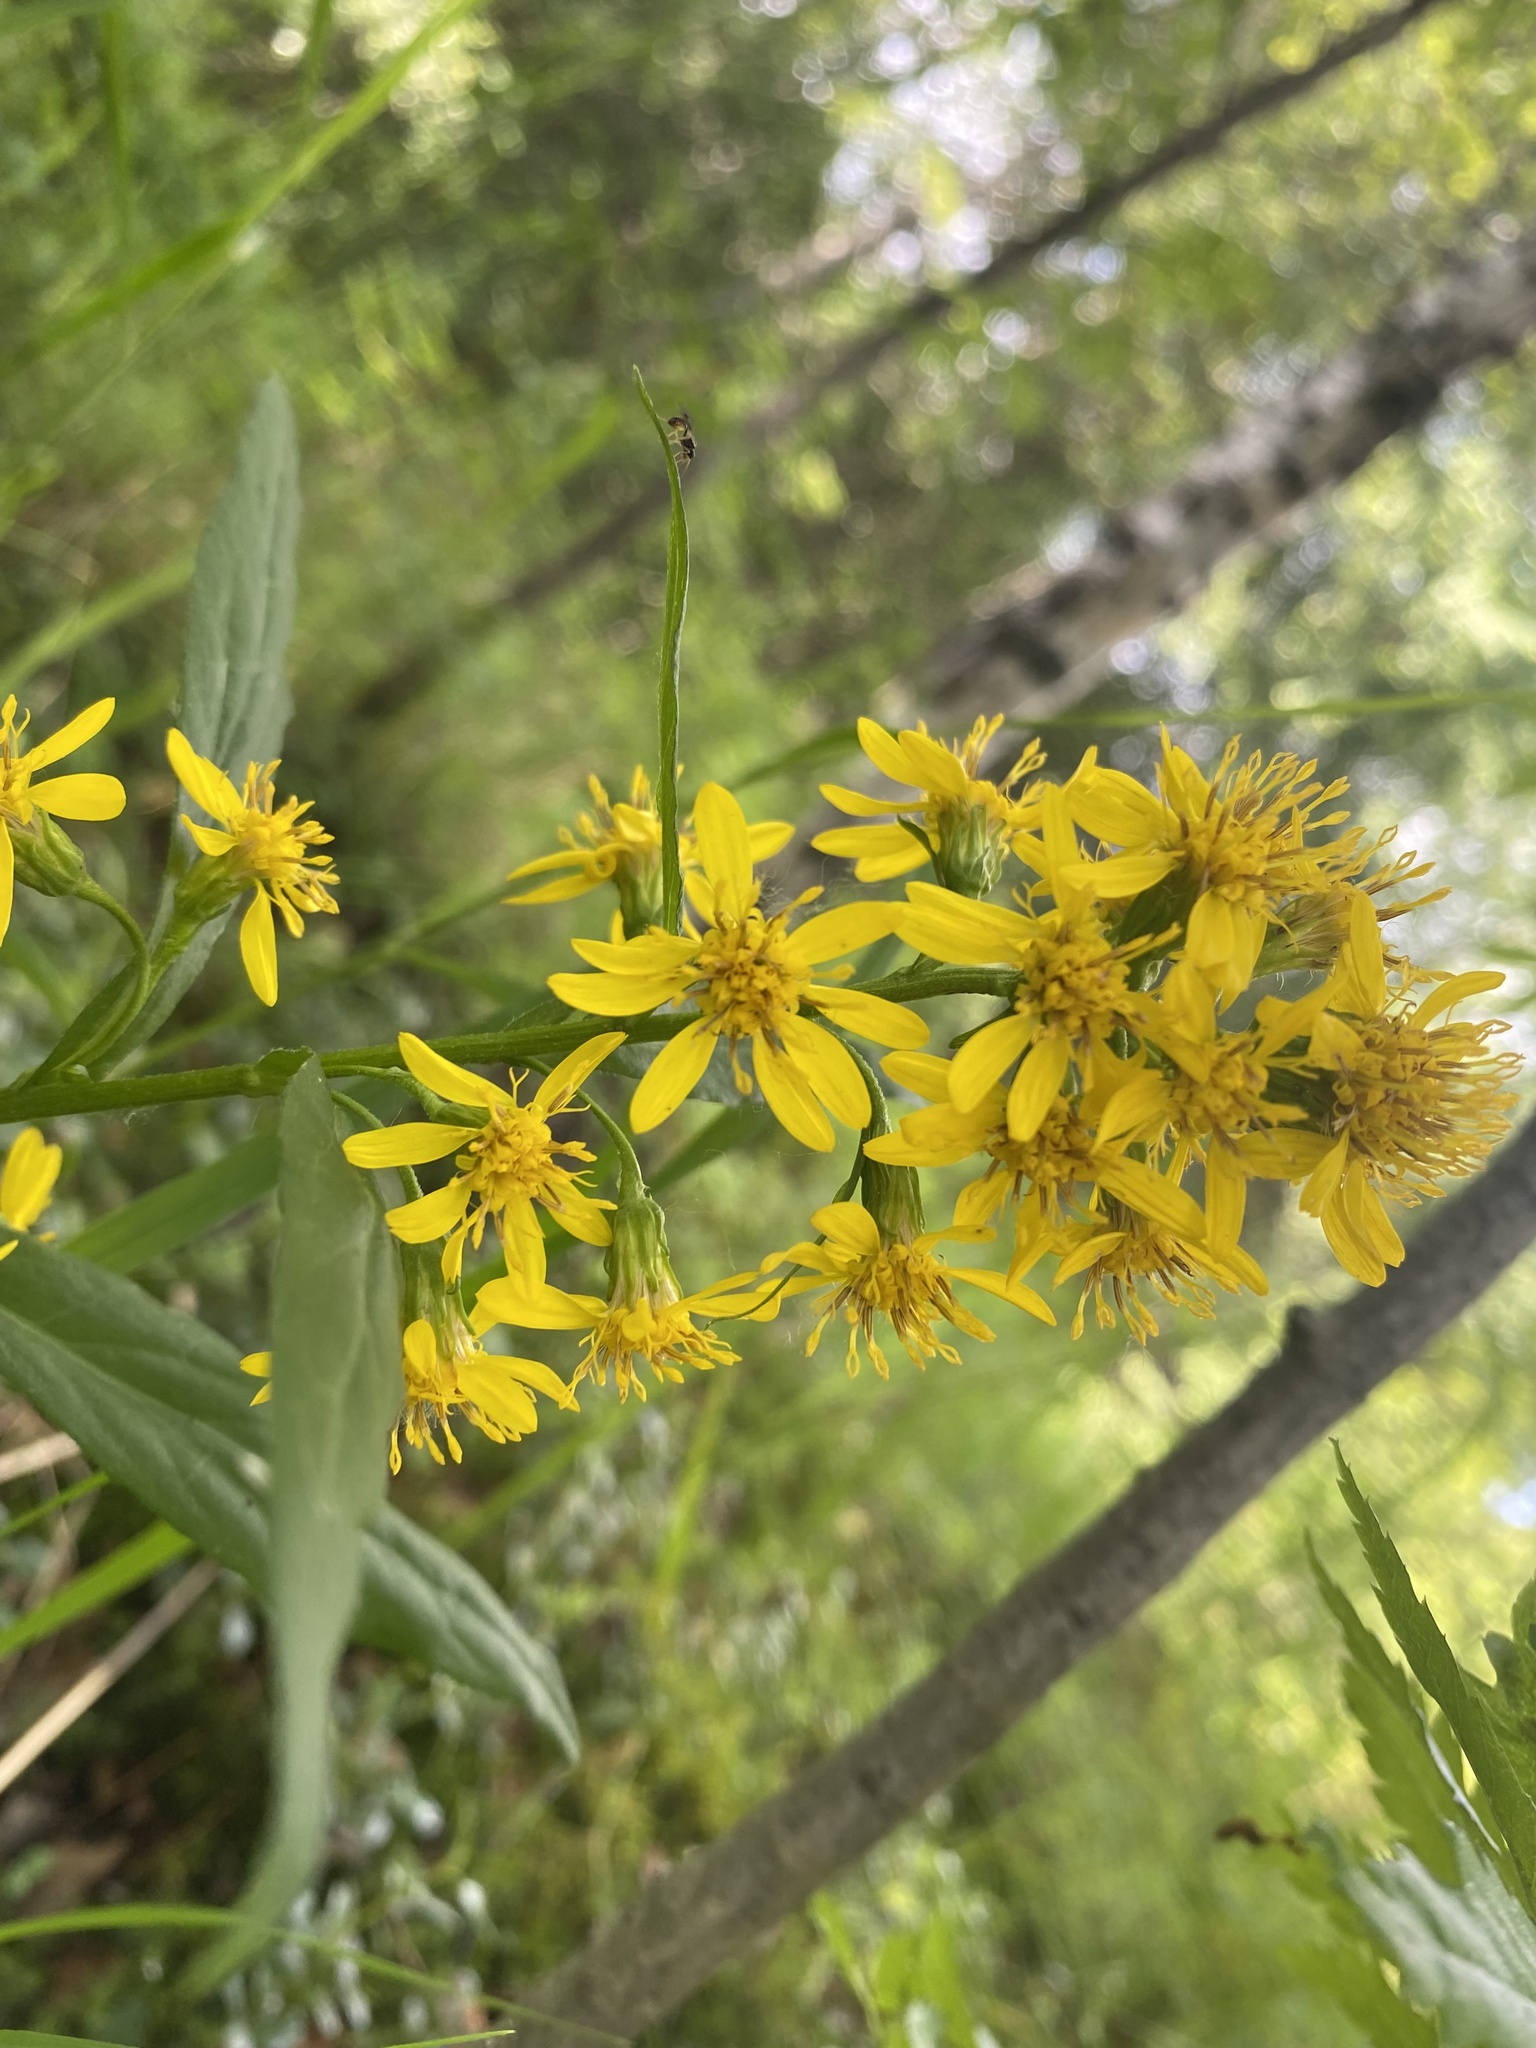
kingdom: Plantae
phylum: Tracheophyta
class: Magnoliopsida
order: Asterales
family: Asteraceae
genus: Solidago
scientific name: Solidago dahurica
